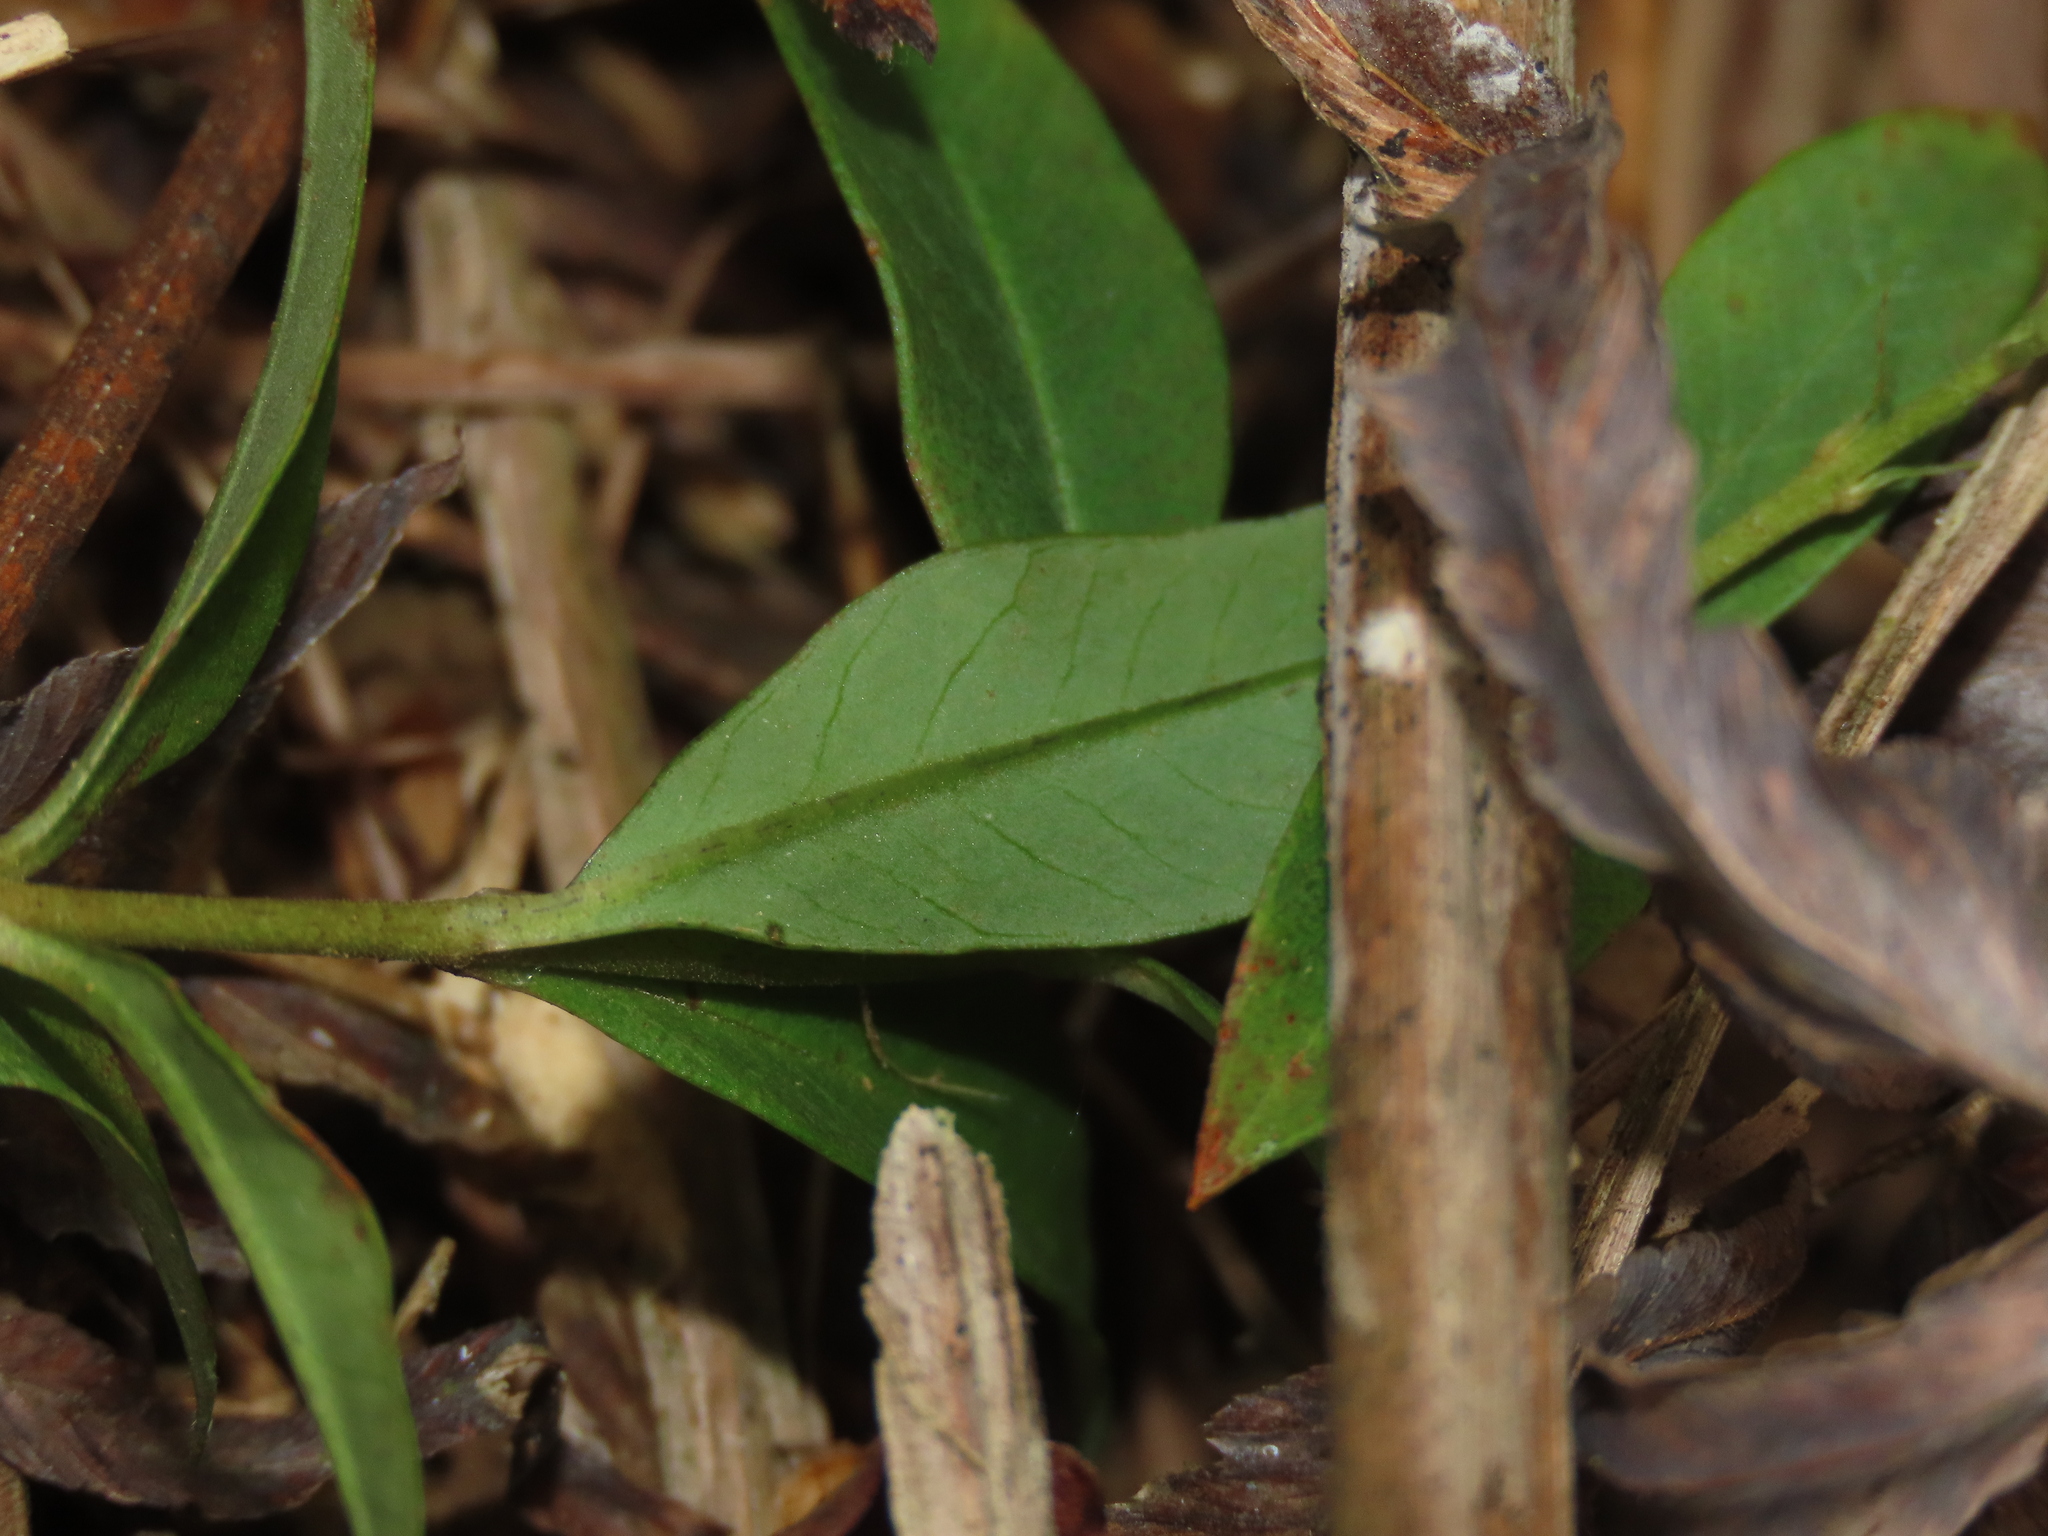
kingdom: Plantae
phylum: Tracheophyta
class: Magnoliopsida
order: Ericales
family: Primulaceae
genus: Lysimachia
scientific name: Lysimachia fortunei
